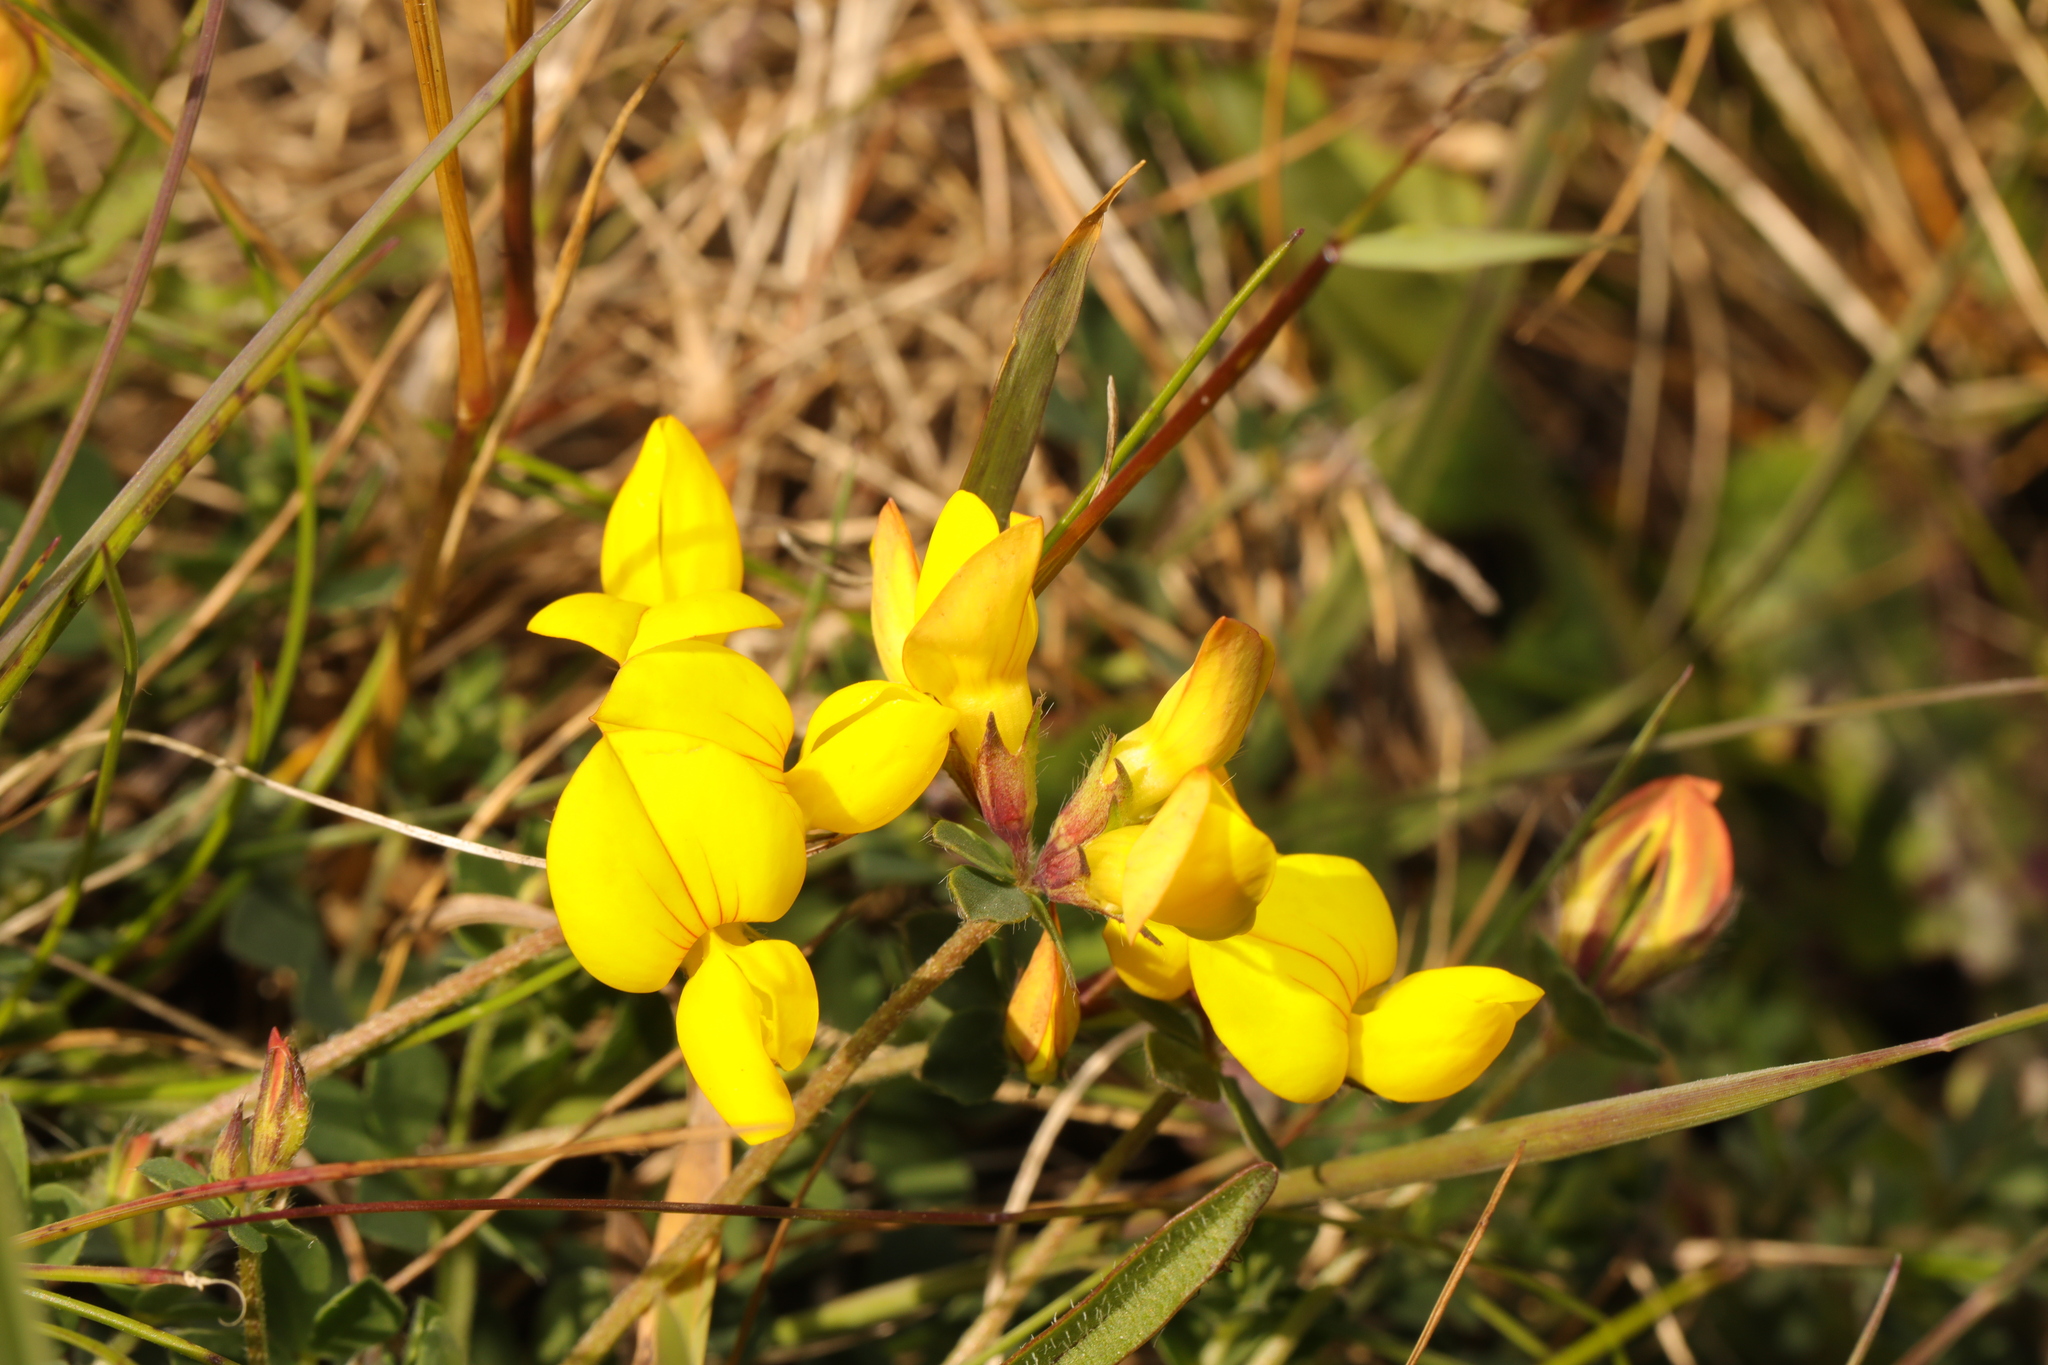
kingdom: Plantae
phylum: Tracheophyta
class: Magnoliopsida
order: Fabales
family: Fabaceae
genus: Lotus
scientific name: Lotus corniculatus
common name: Common bird's-foot-trefoil
